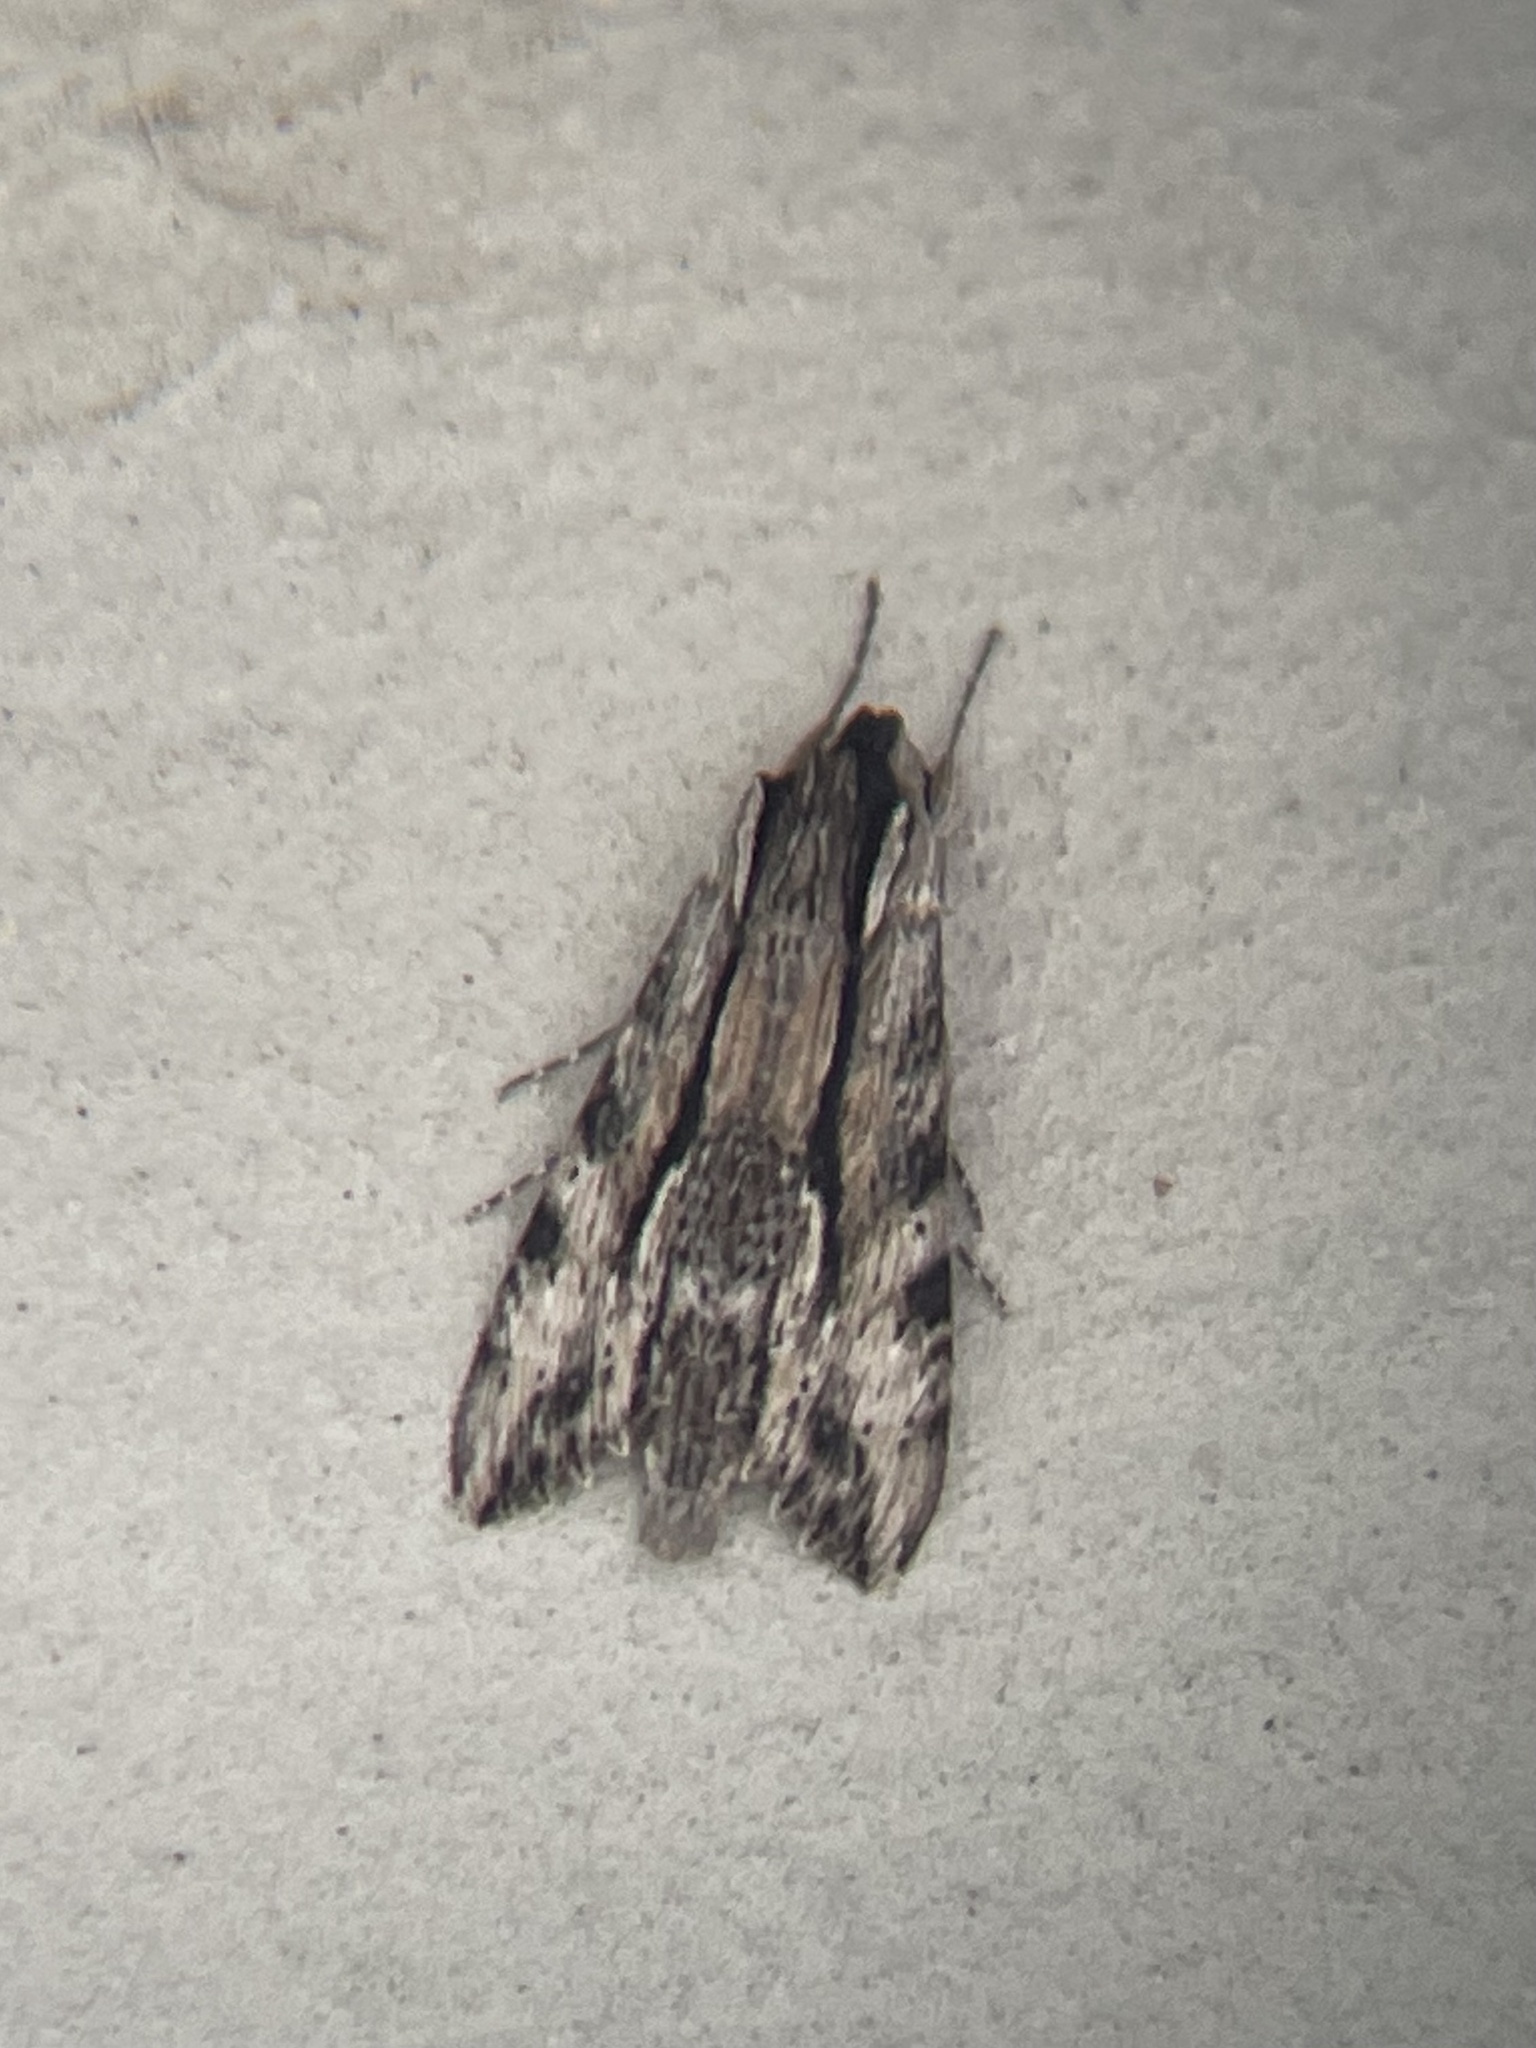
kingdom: Animalia
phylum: Arthropoda
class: Insecta
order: Lepidoptera
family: Sphingidae
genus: Erinnyis
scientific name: Erinnyis obscura
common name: Obscure sphinx
